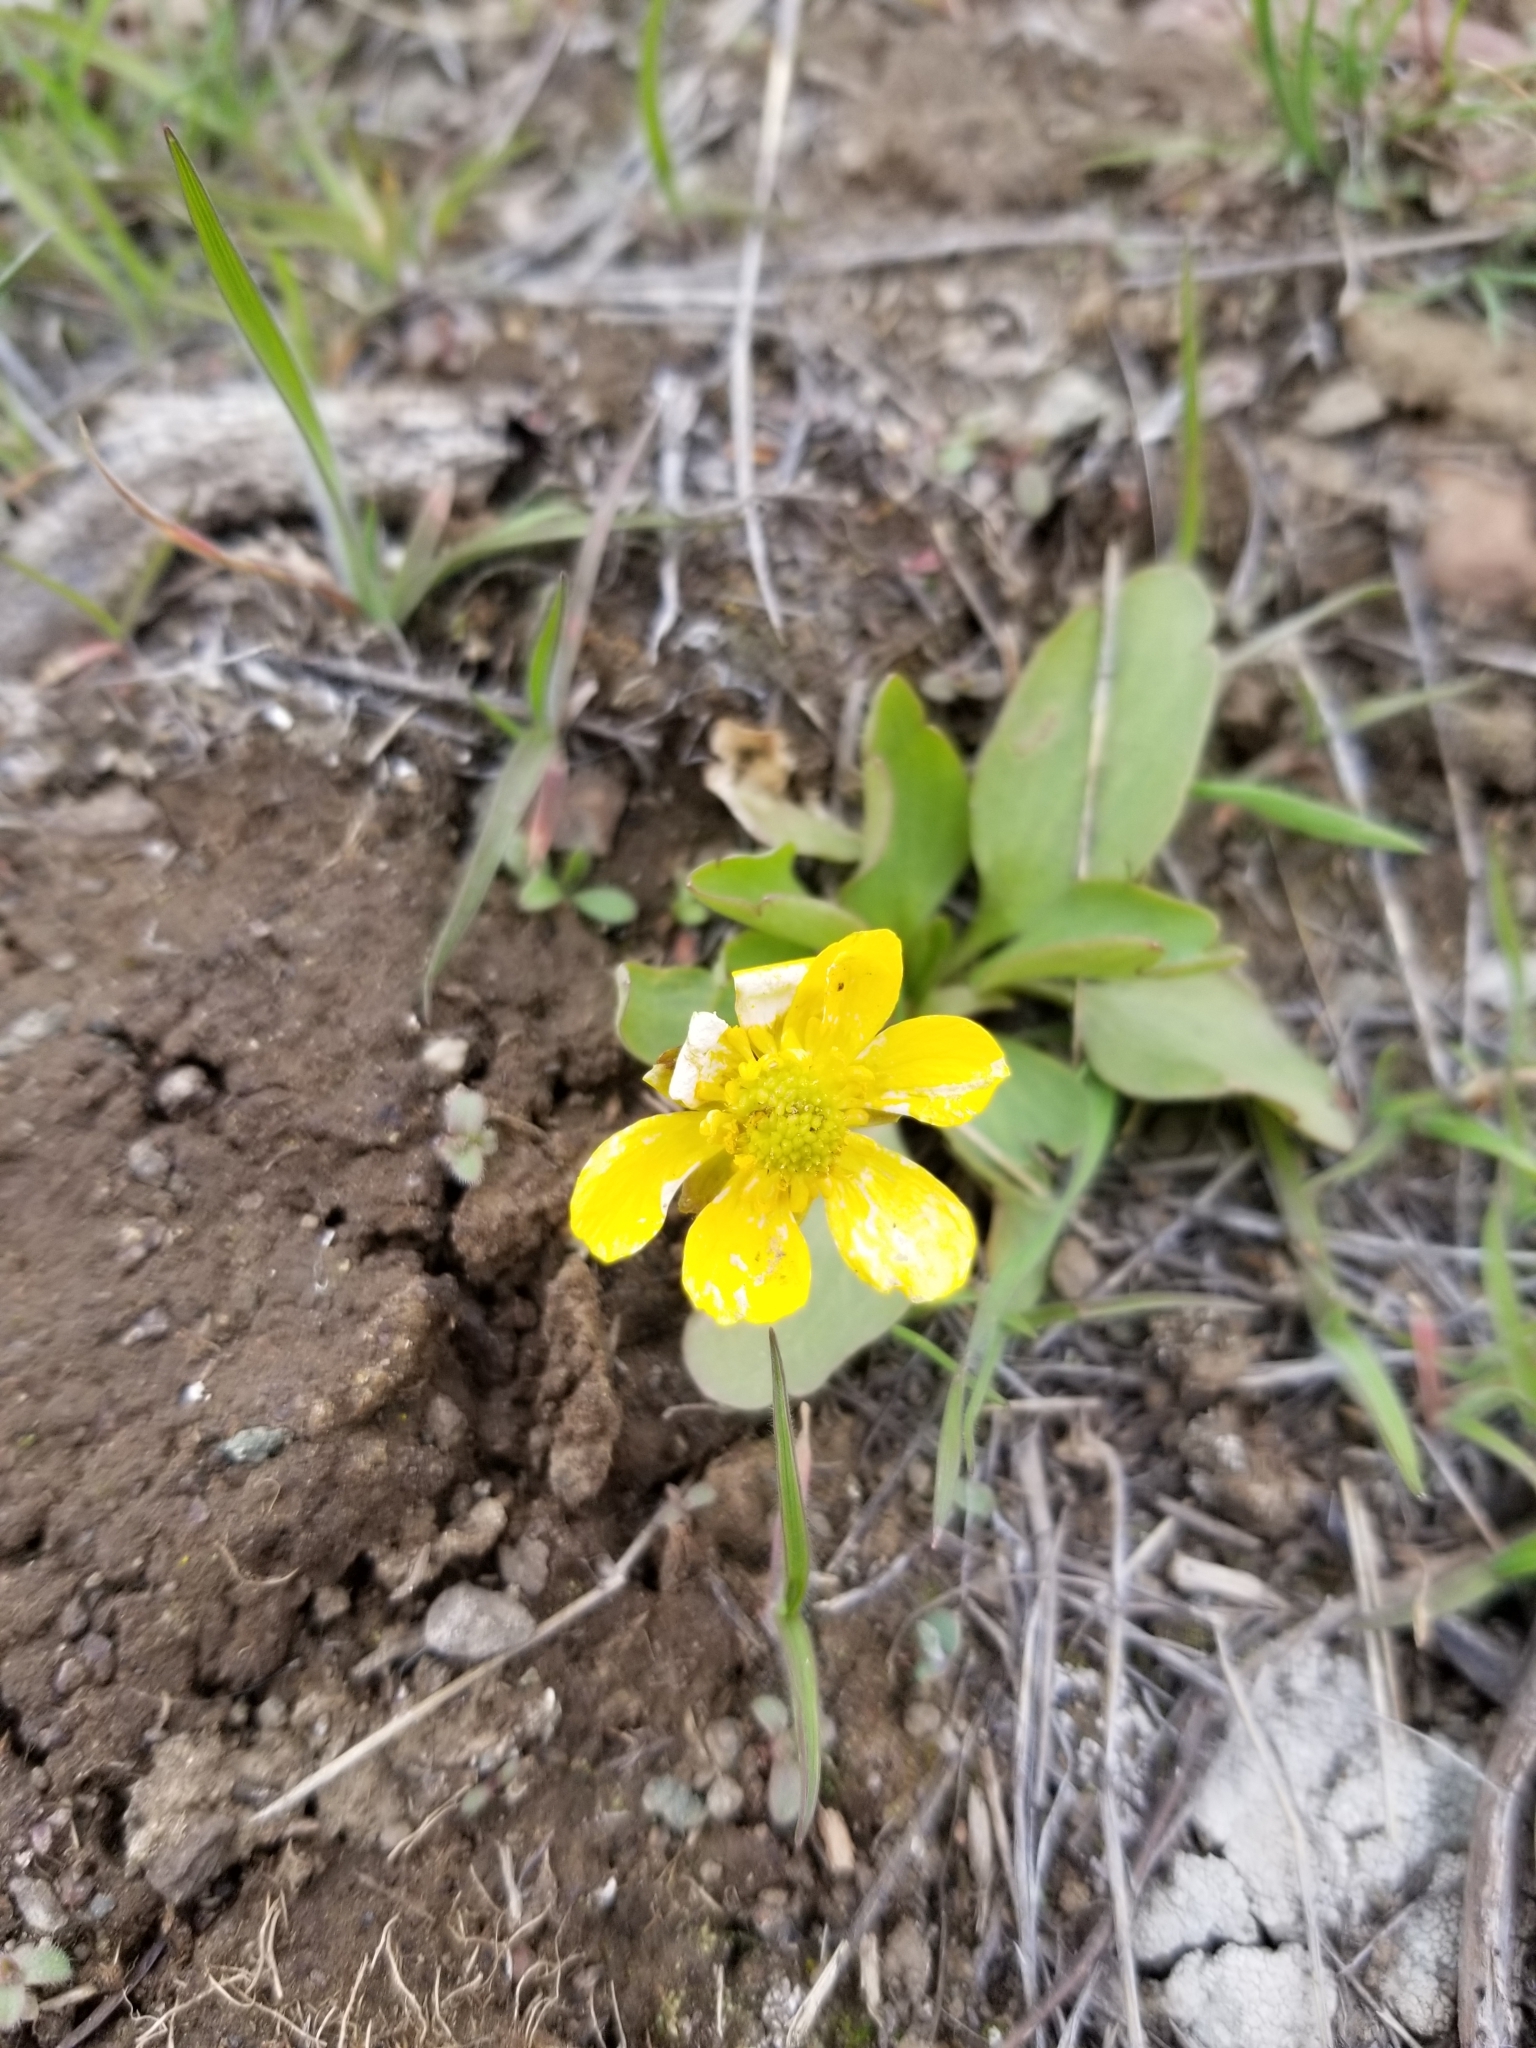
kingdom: Plantae
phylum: Tracheophyta
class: Magnoliopsida
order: Ranunculales
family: Ranunculaceae
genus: Ranunculus
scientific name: Ranunculus glaberrimus
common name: Sagebrush buttercup
